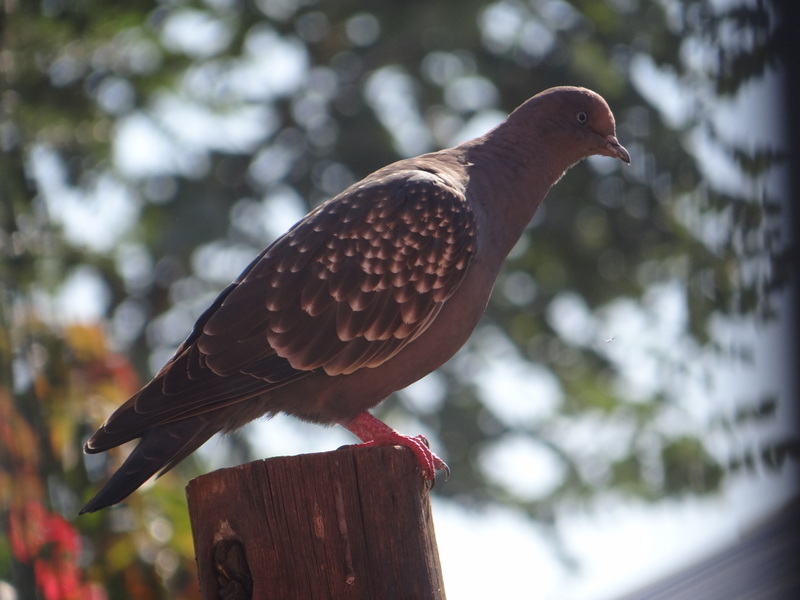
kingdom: Animalia
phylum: Chordata
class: Aves
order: Columbiformes
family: Columbidae
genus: Patagioenas
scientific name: Patagioenas maculosa
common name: Spot-winged pigeon
